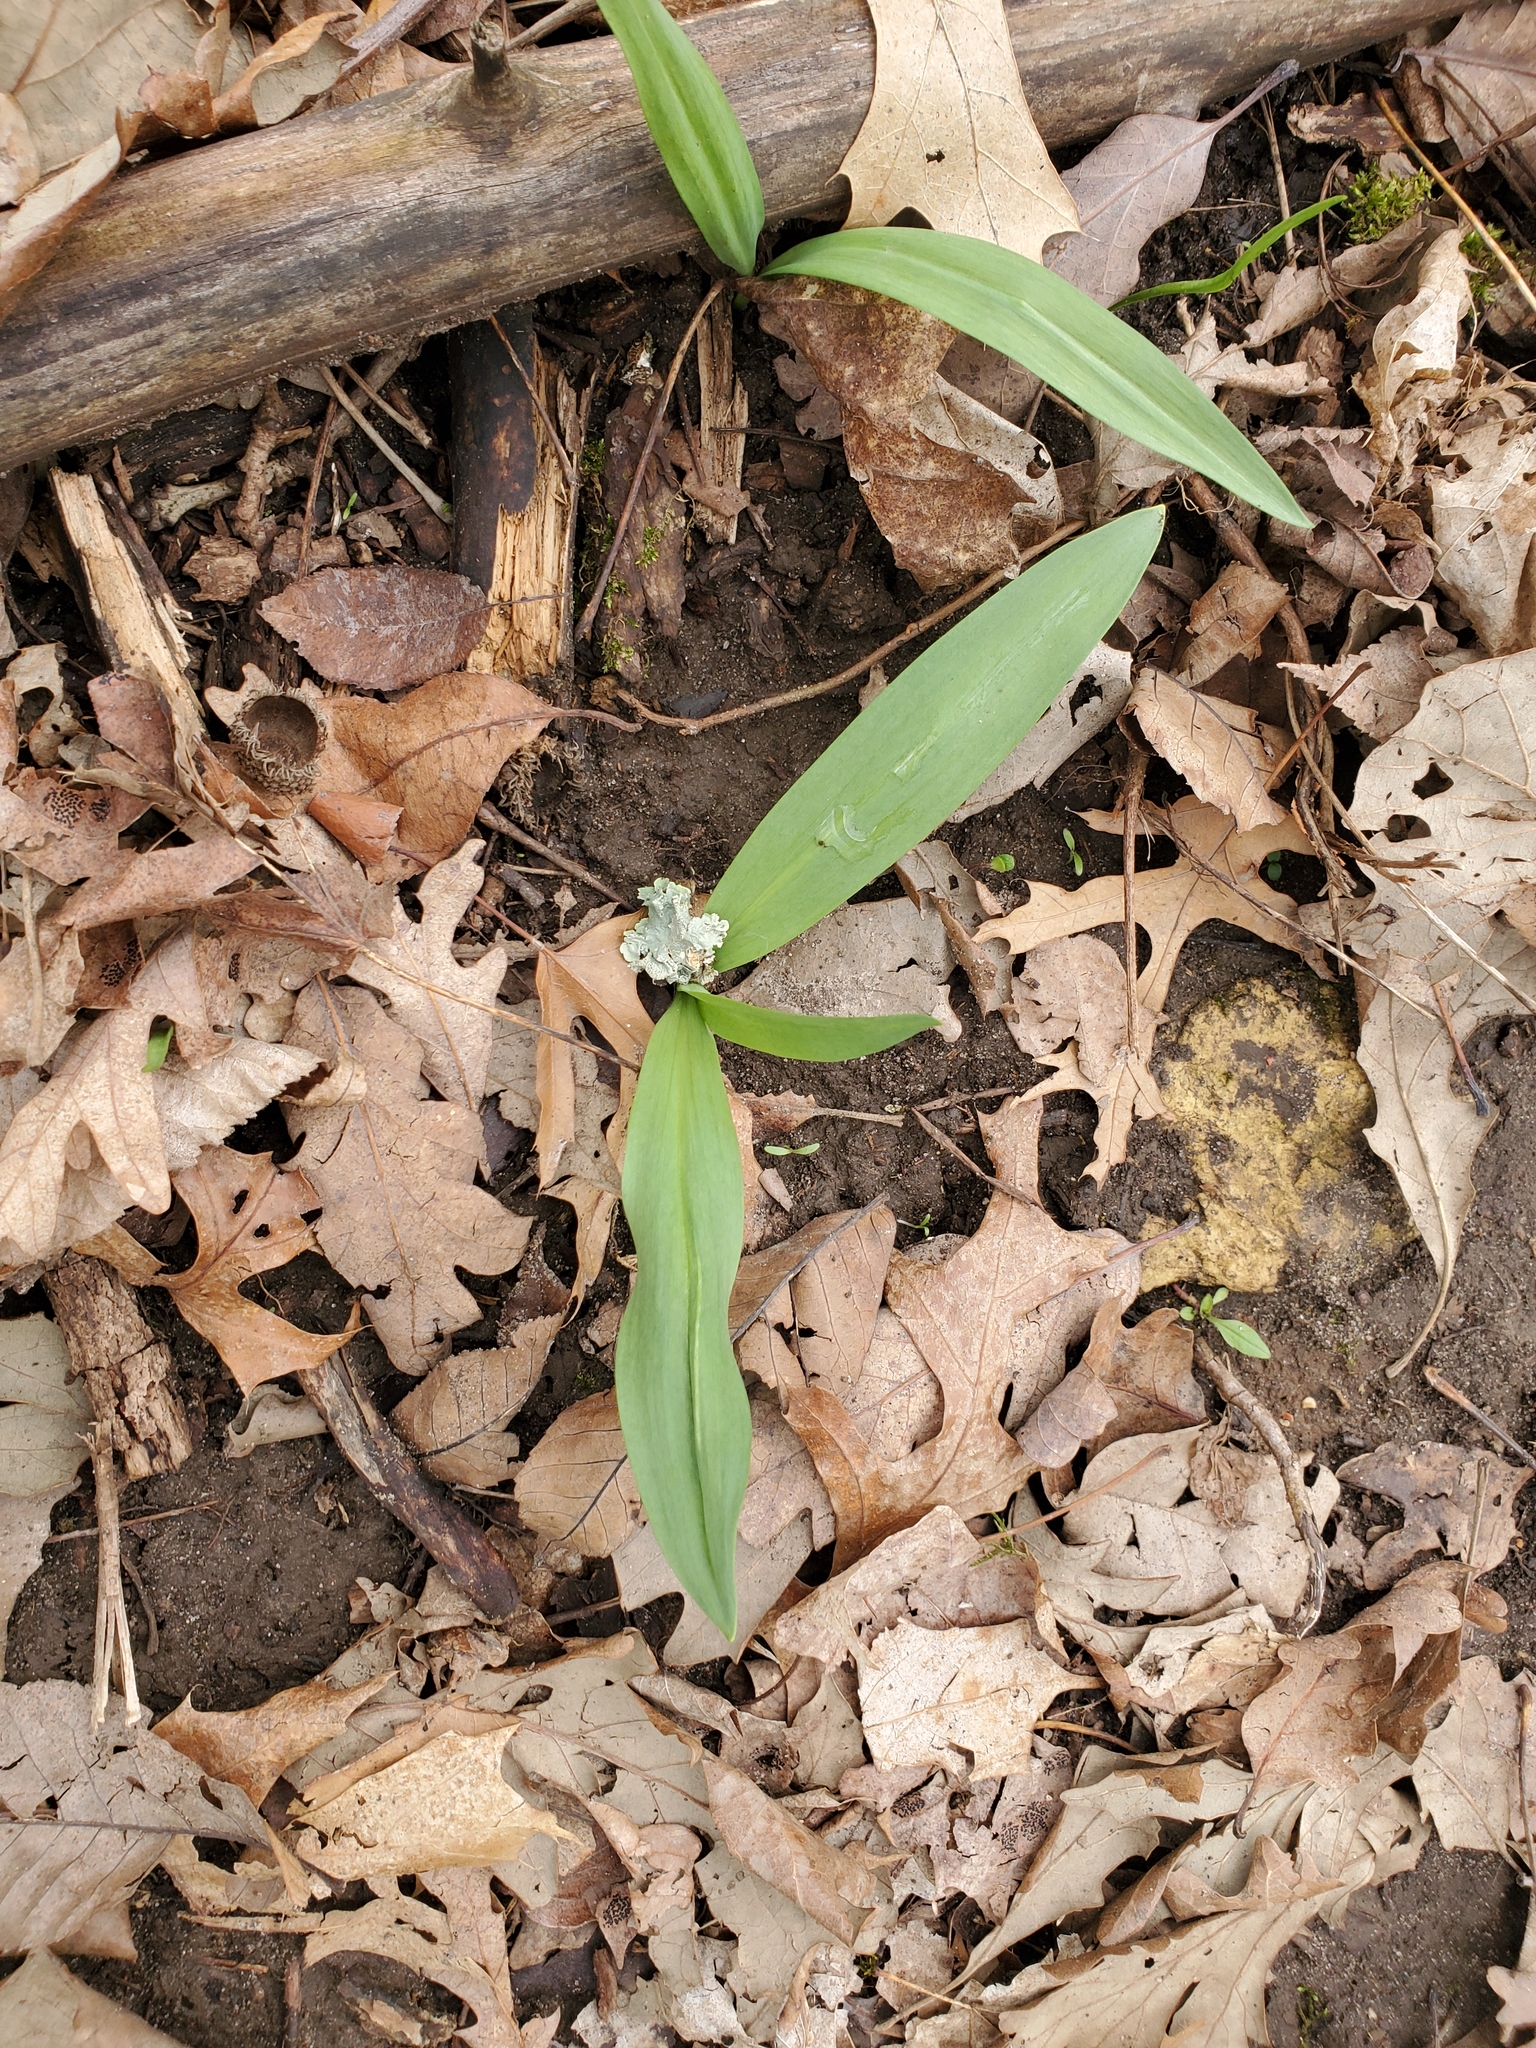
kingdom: Plantae
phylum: Tracheophyta
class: Liliopsida
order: Asparagales
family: Amaryllidaceae
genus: Allium
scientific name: Allium tricoccum
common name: Ramp
